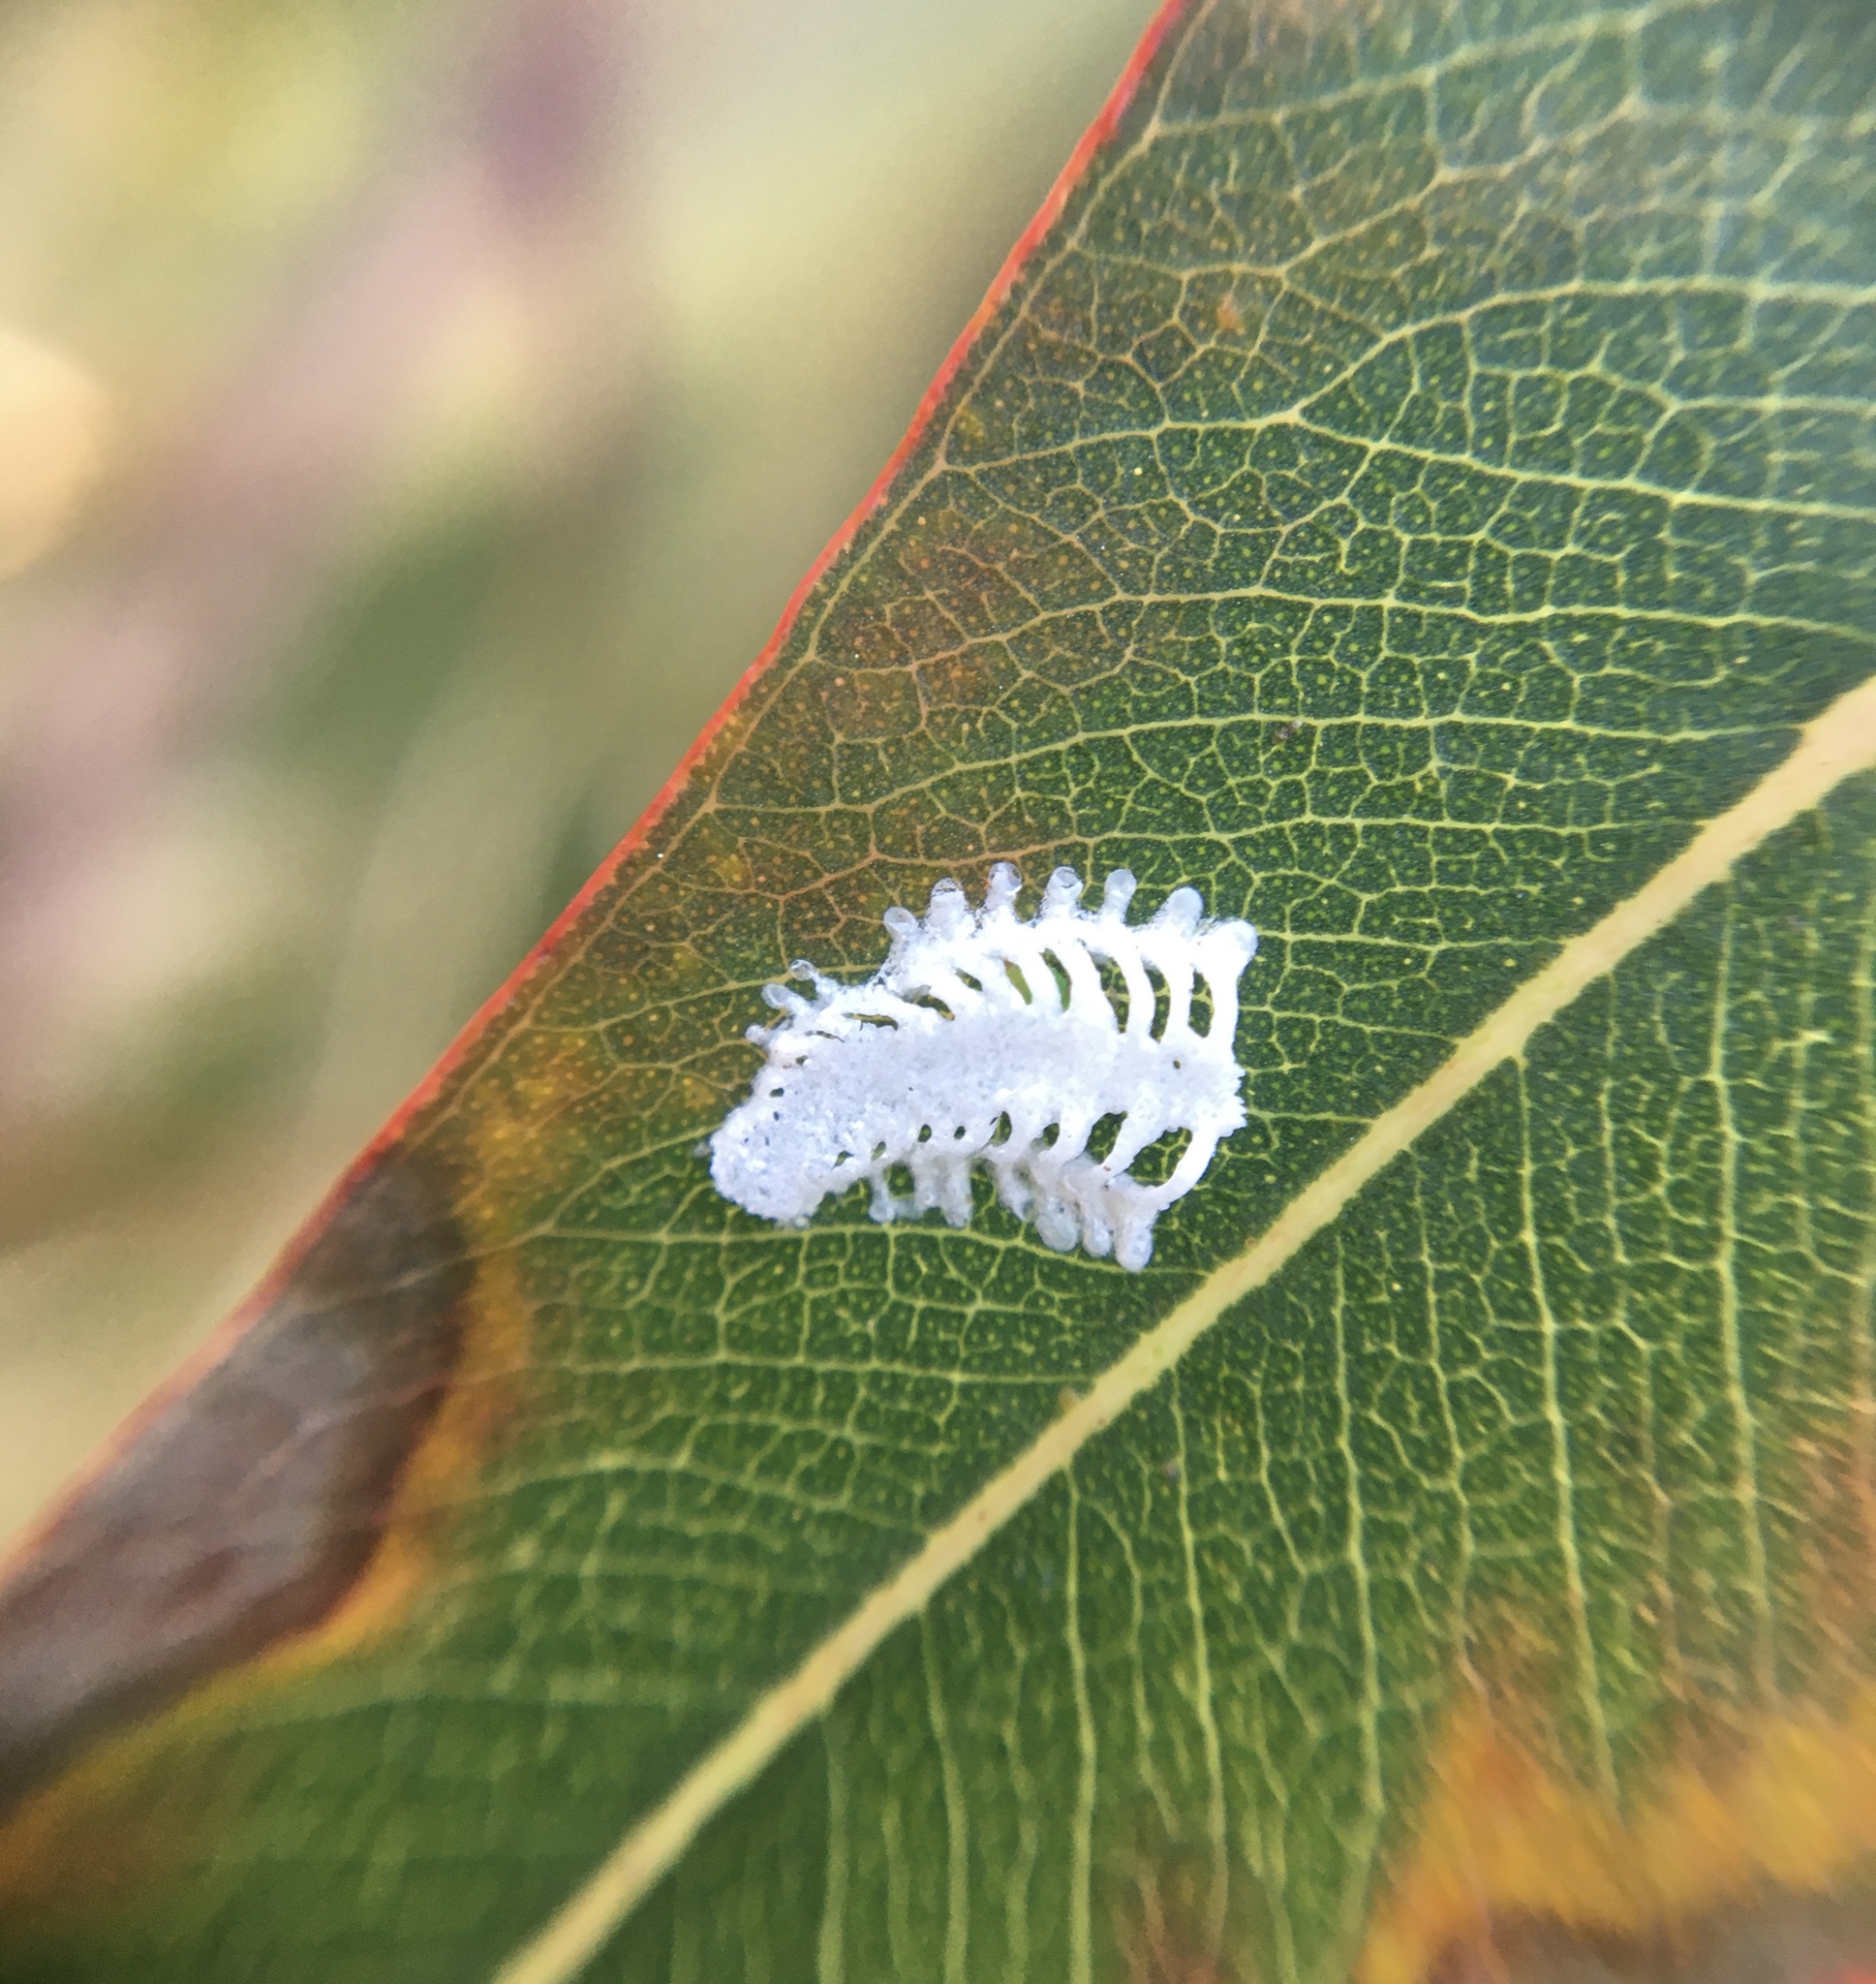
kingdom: Animalia
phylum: Arthropoda
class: Insecta
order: Hemiptera
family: Aphalaridae
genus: Eucalyptolyma
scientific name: Eucalyptolyma maideni
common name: Spotted gum lerp psyllid
